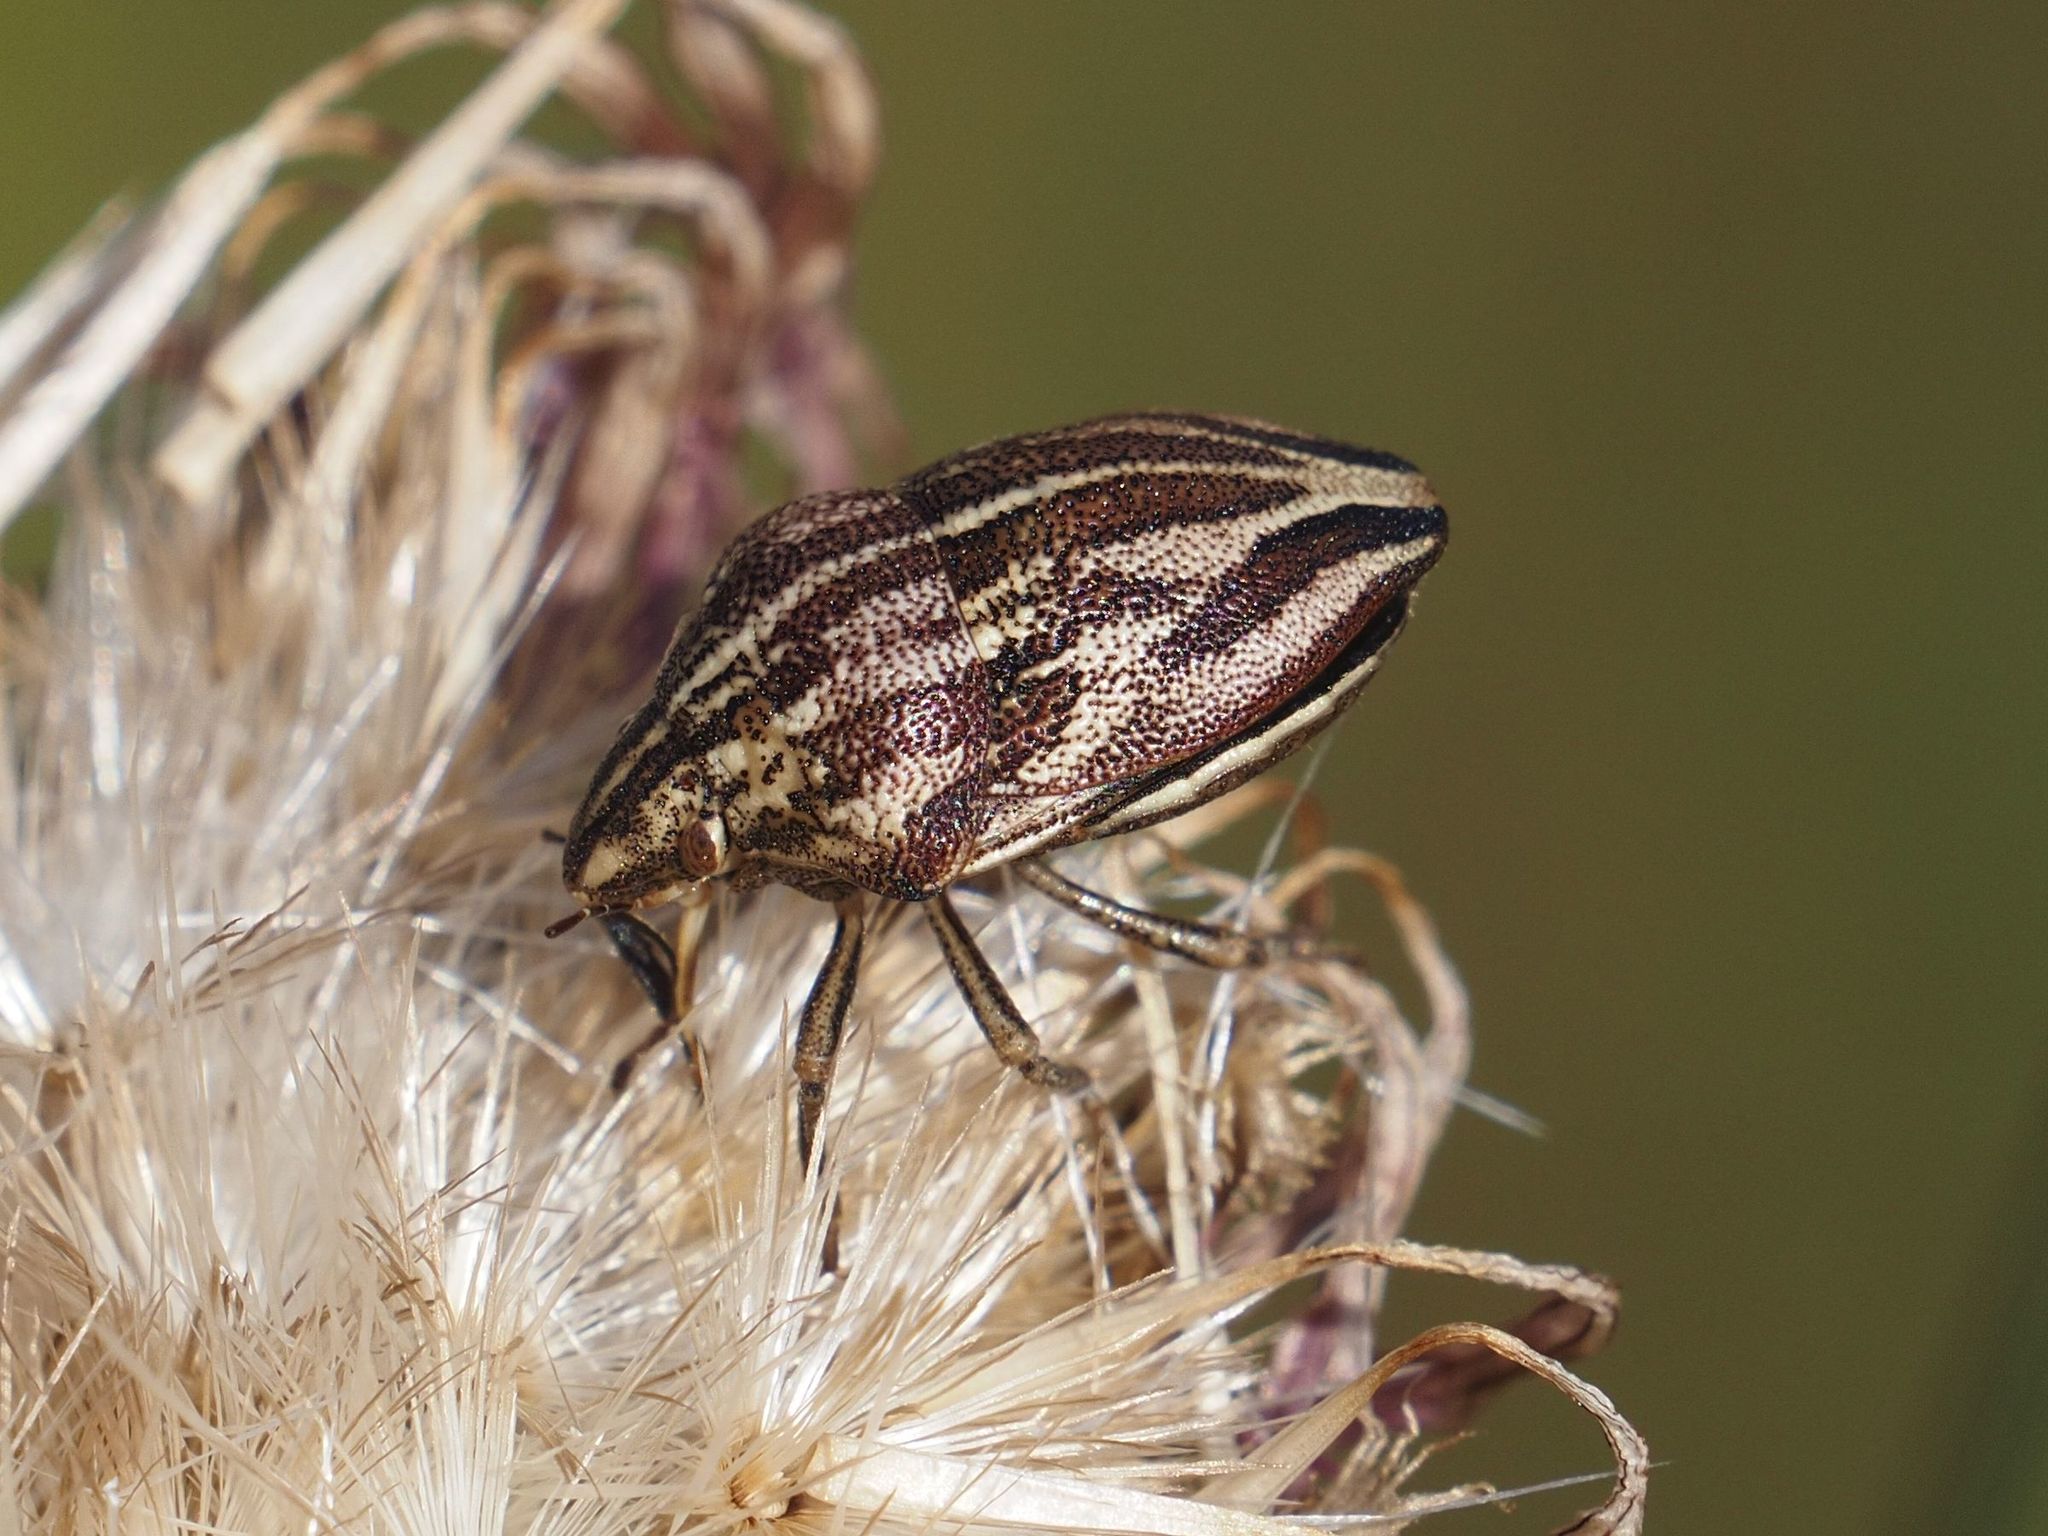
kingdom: Animalia
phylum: Arthropoda
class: Insecta
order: Hemiptera
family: Scutelleridae
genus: Odontotarsus
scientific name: Odontotarsus purpureolineatus
